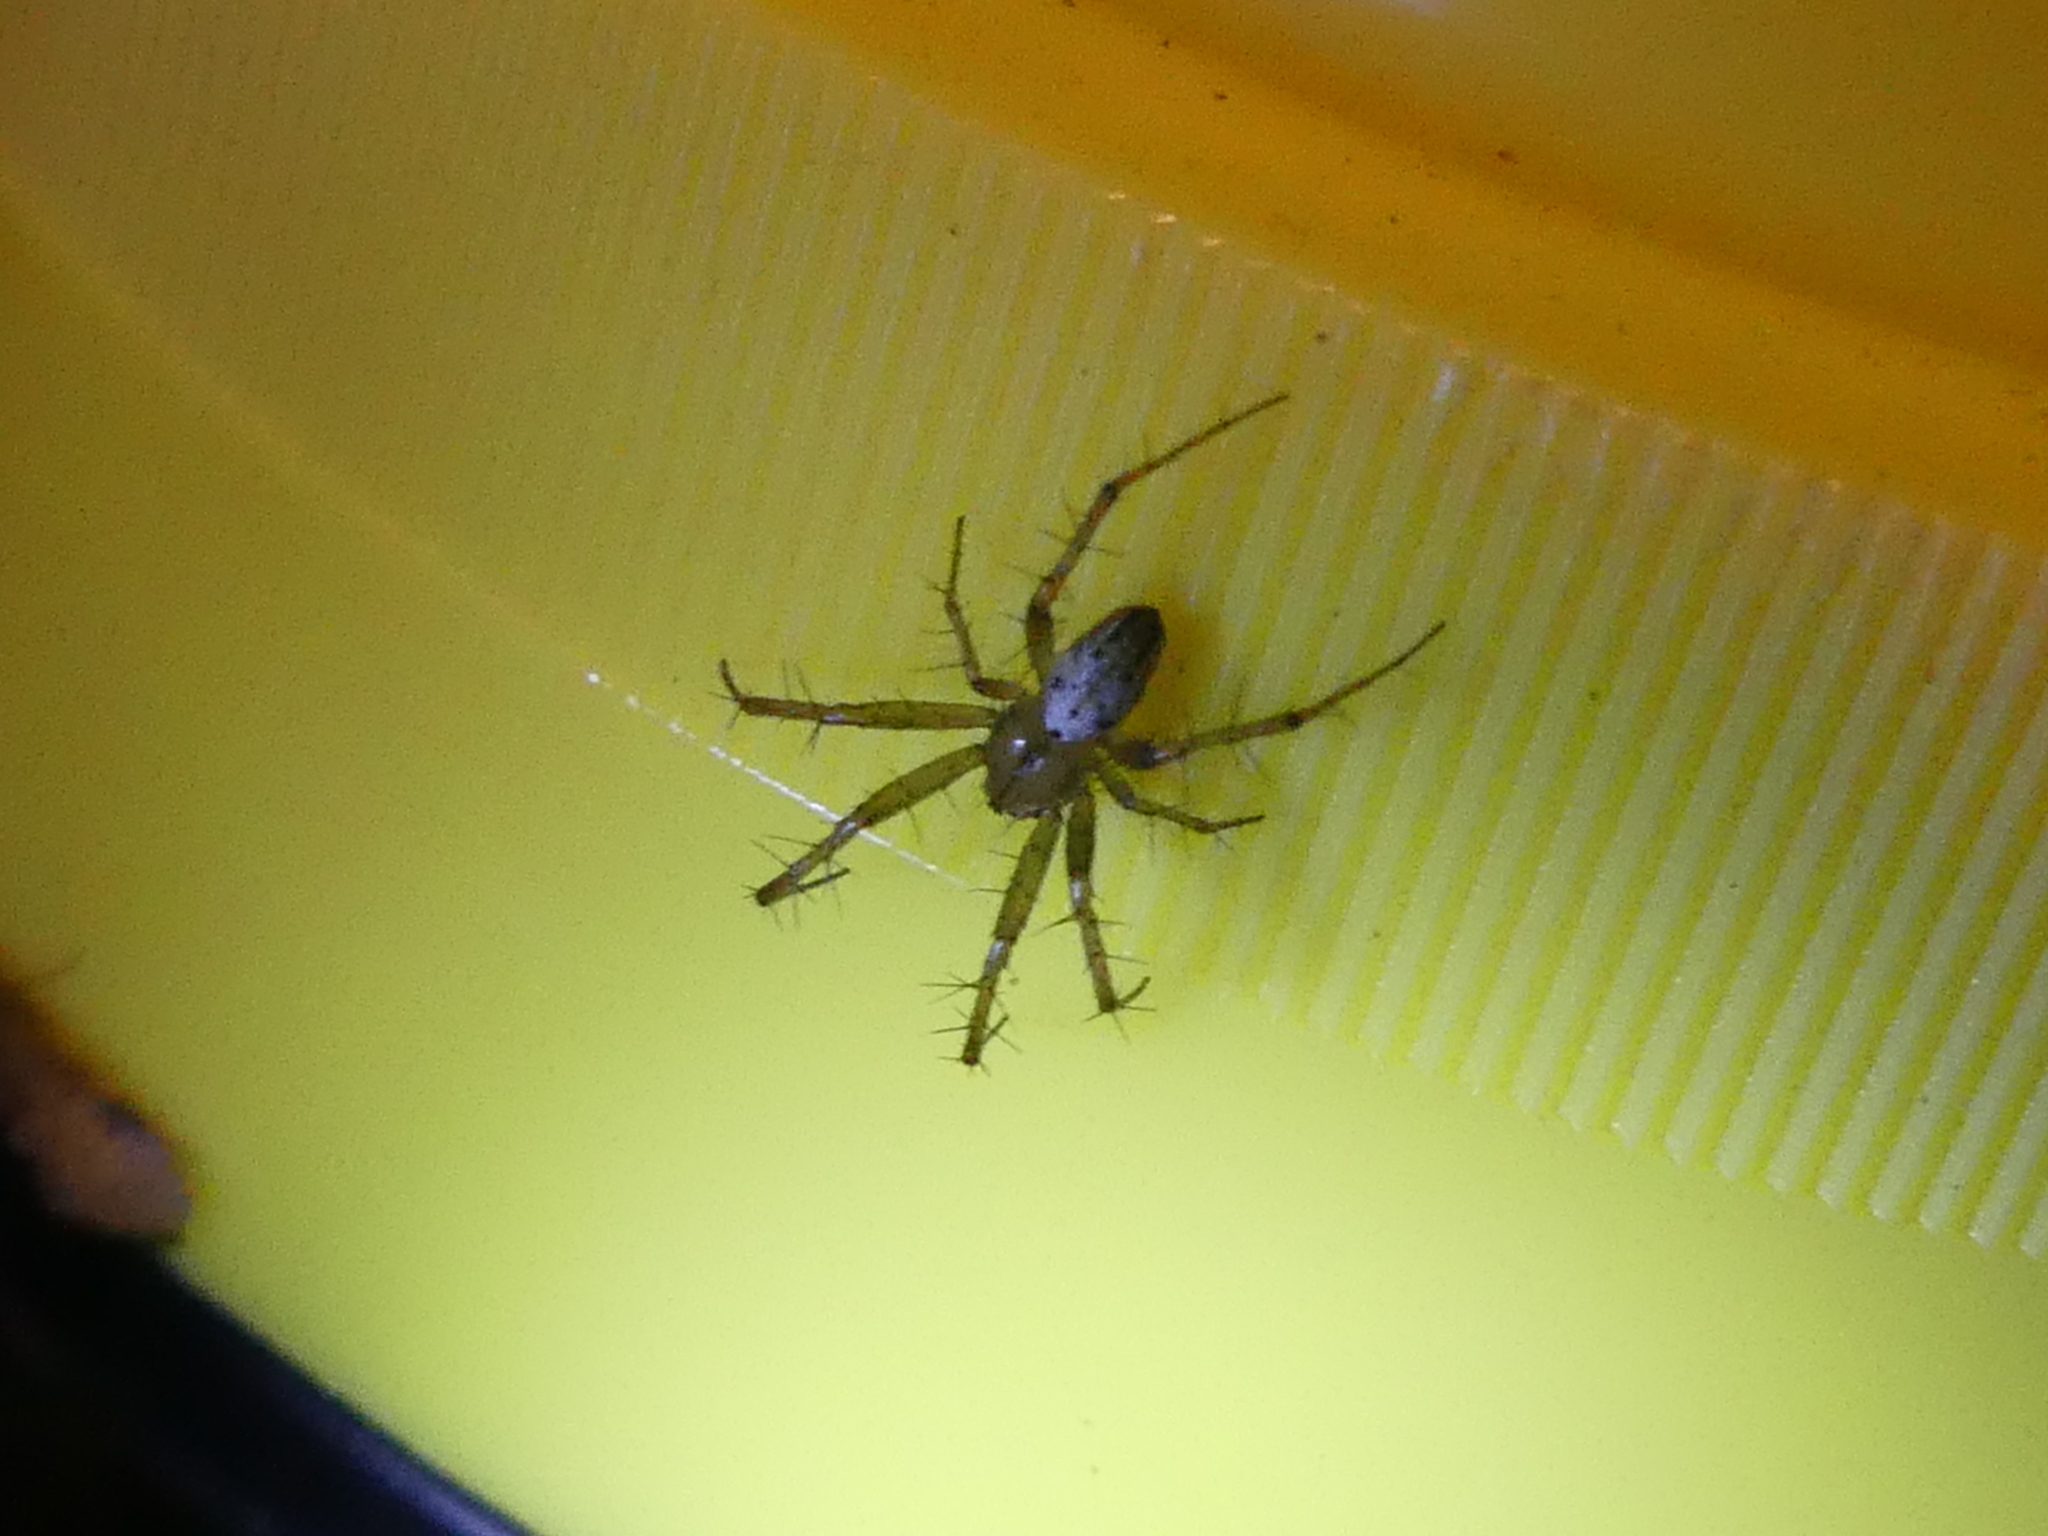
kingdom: Animalia
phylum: Arthropoda
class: Arachnida
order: Araneae
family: Araneidae
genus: Mangora
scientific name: Mangora gibberosa
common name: Lined orbweaver
